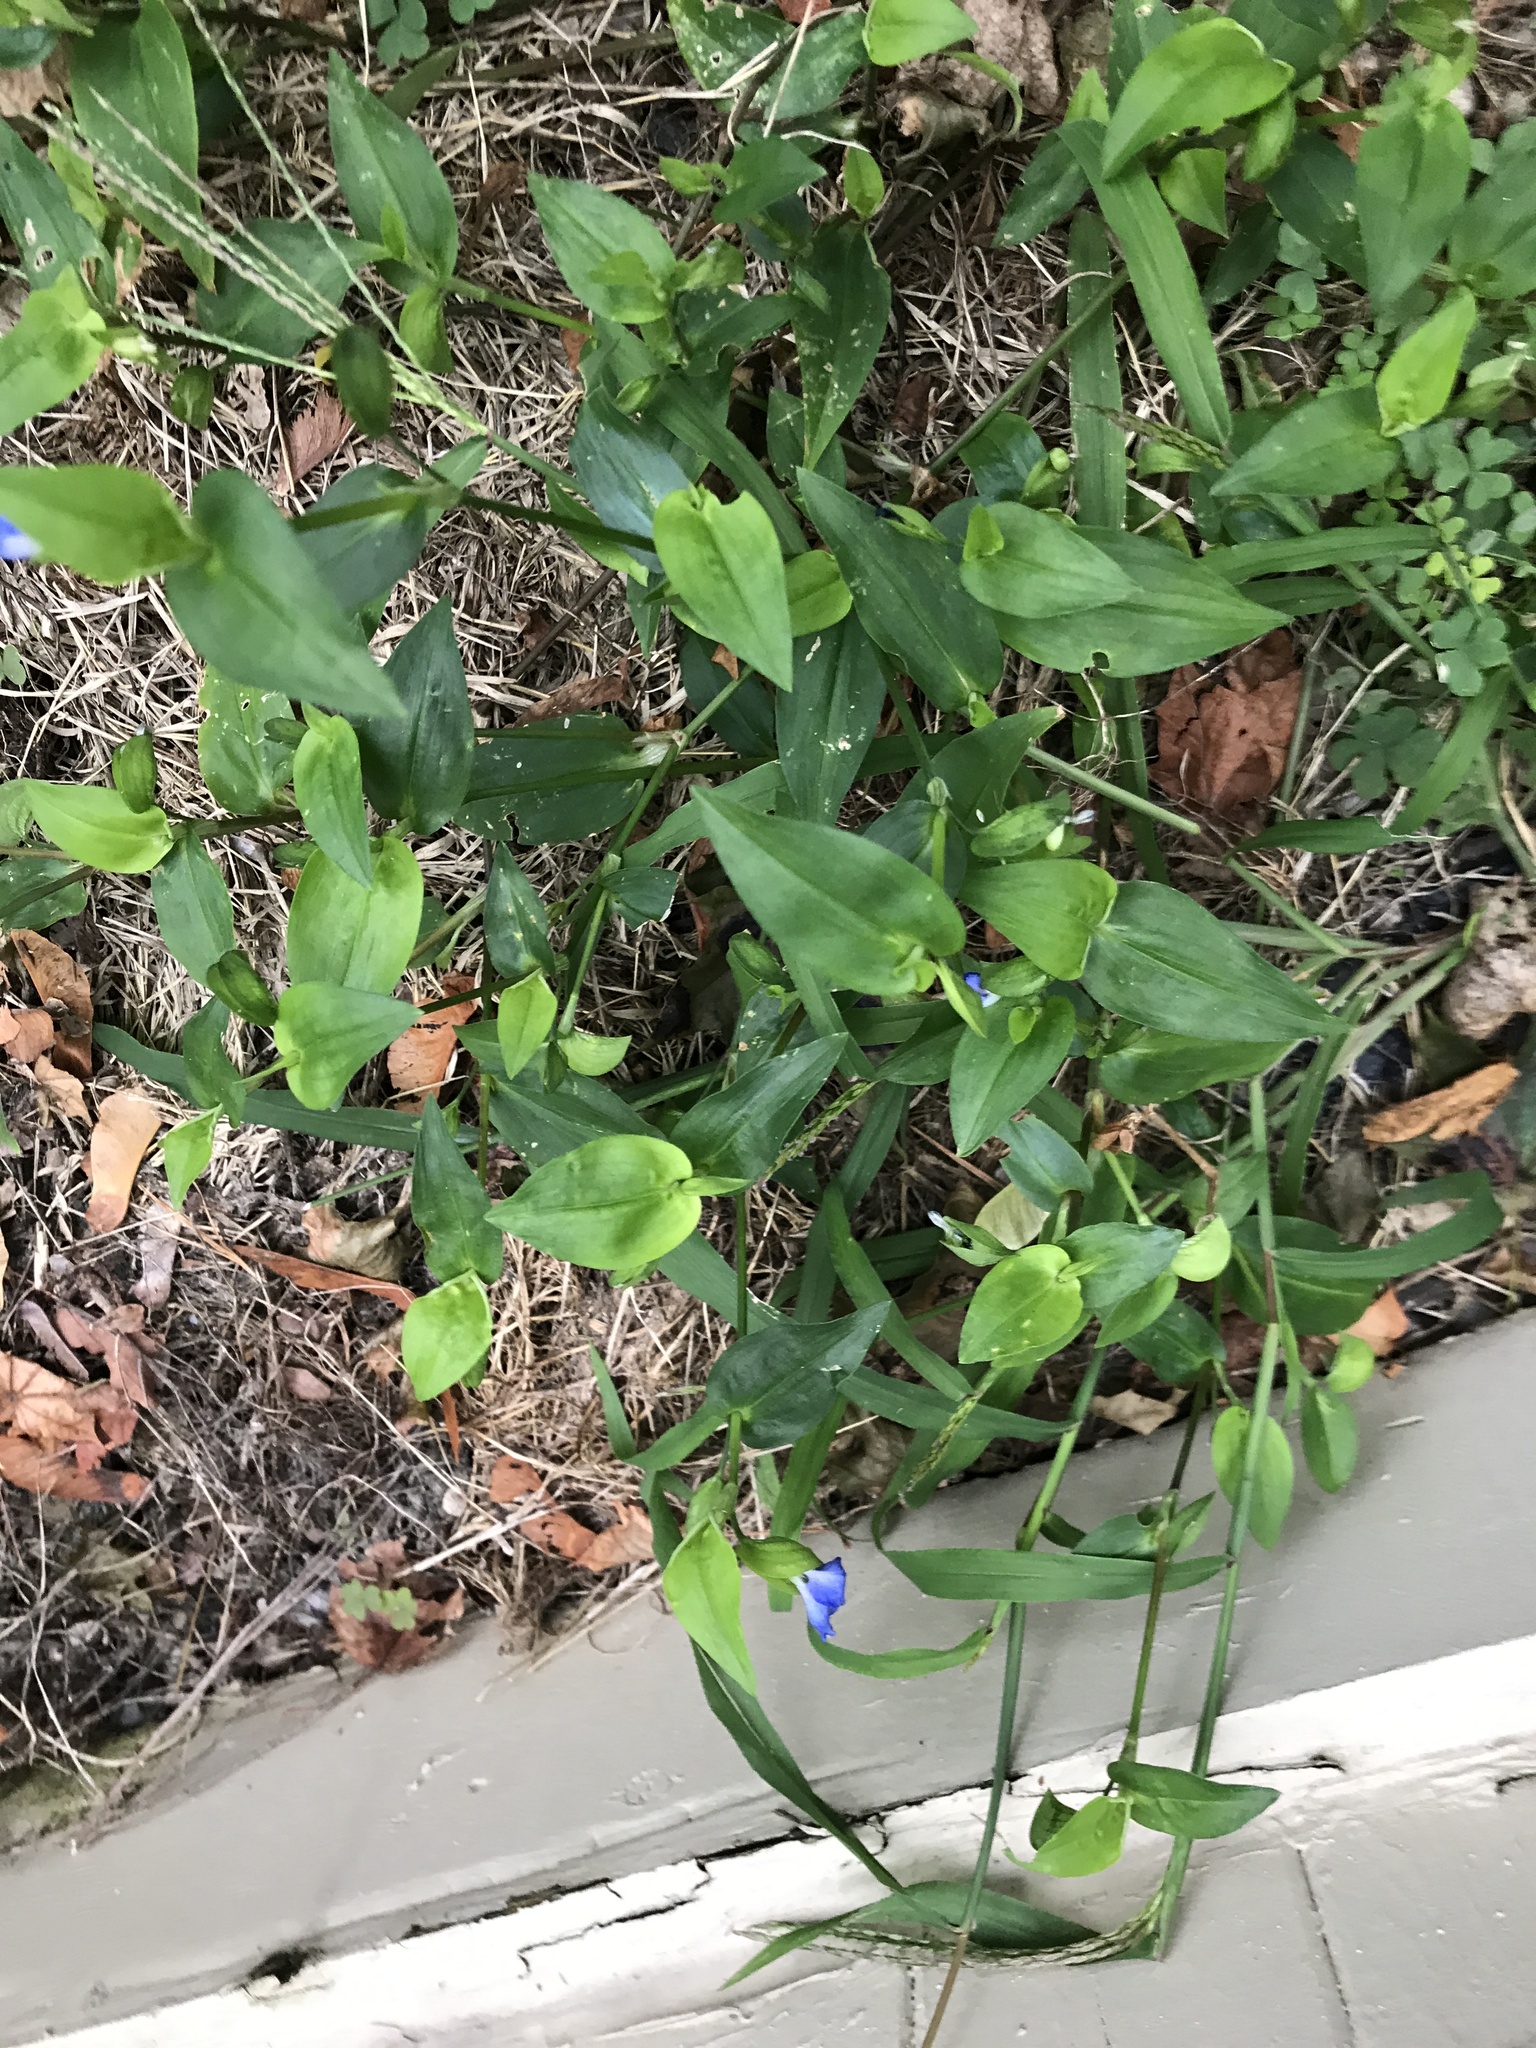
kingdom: Plantae
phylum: Tracheophyta
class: Liliopsida
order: Commelinales
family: Commelinaceae
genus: Commelina
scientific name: Commelina communis
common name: Asiatic dayflower
